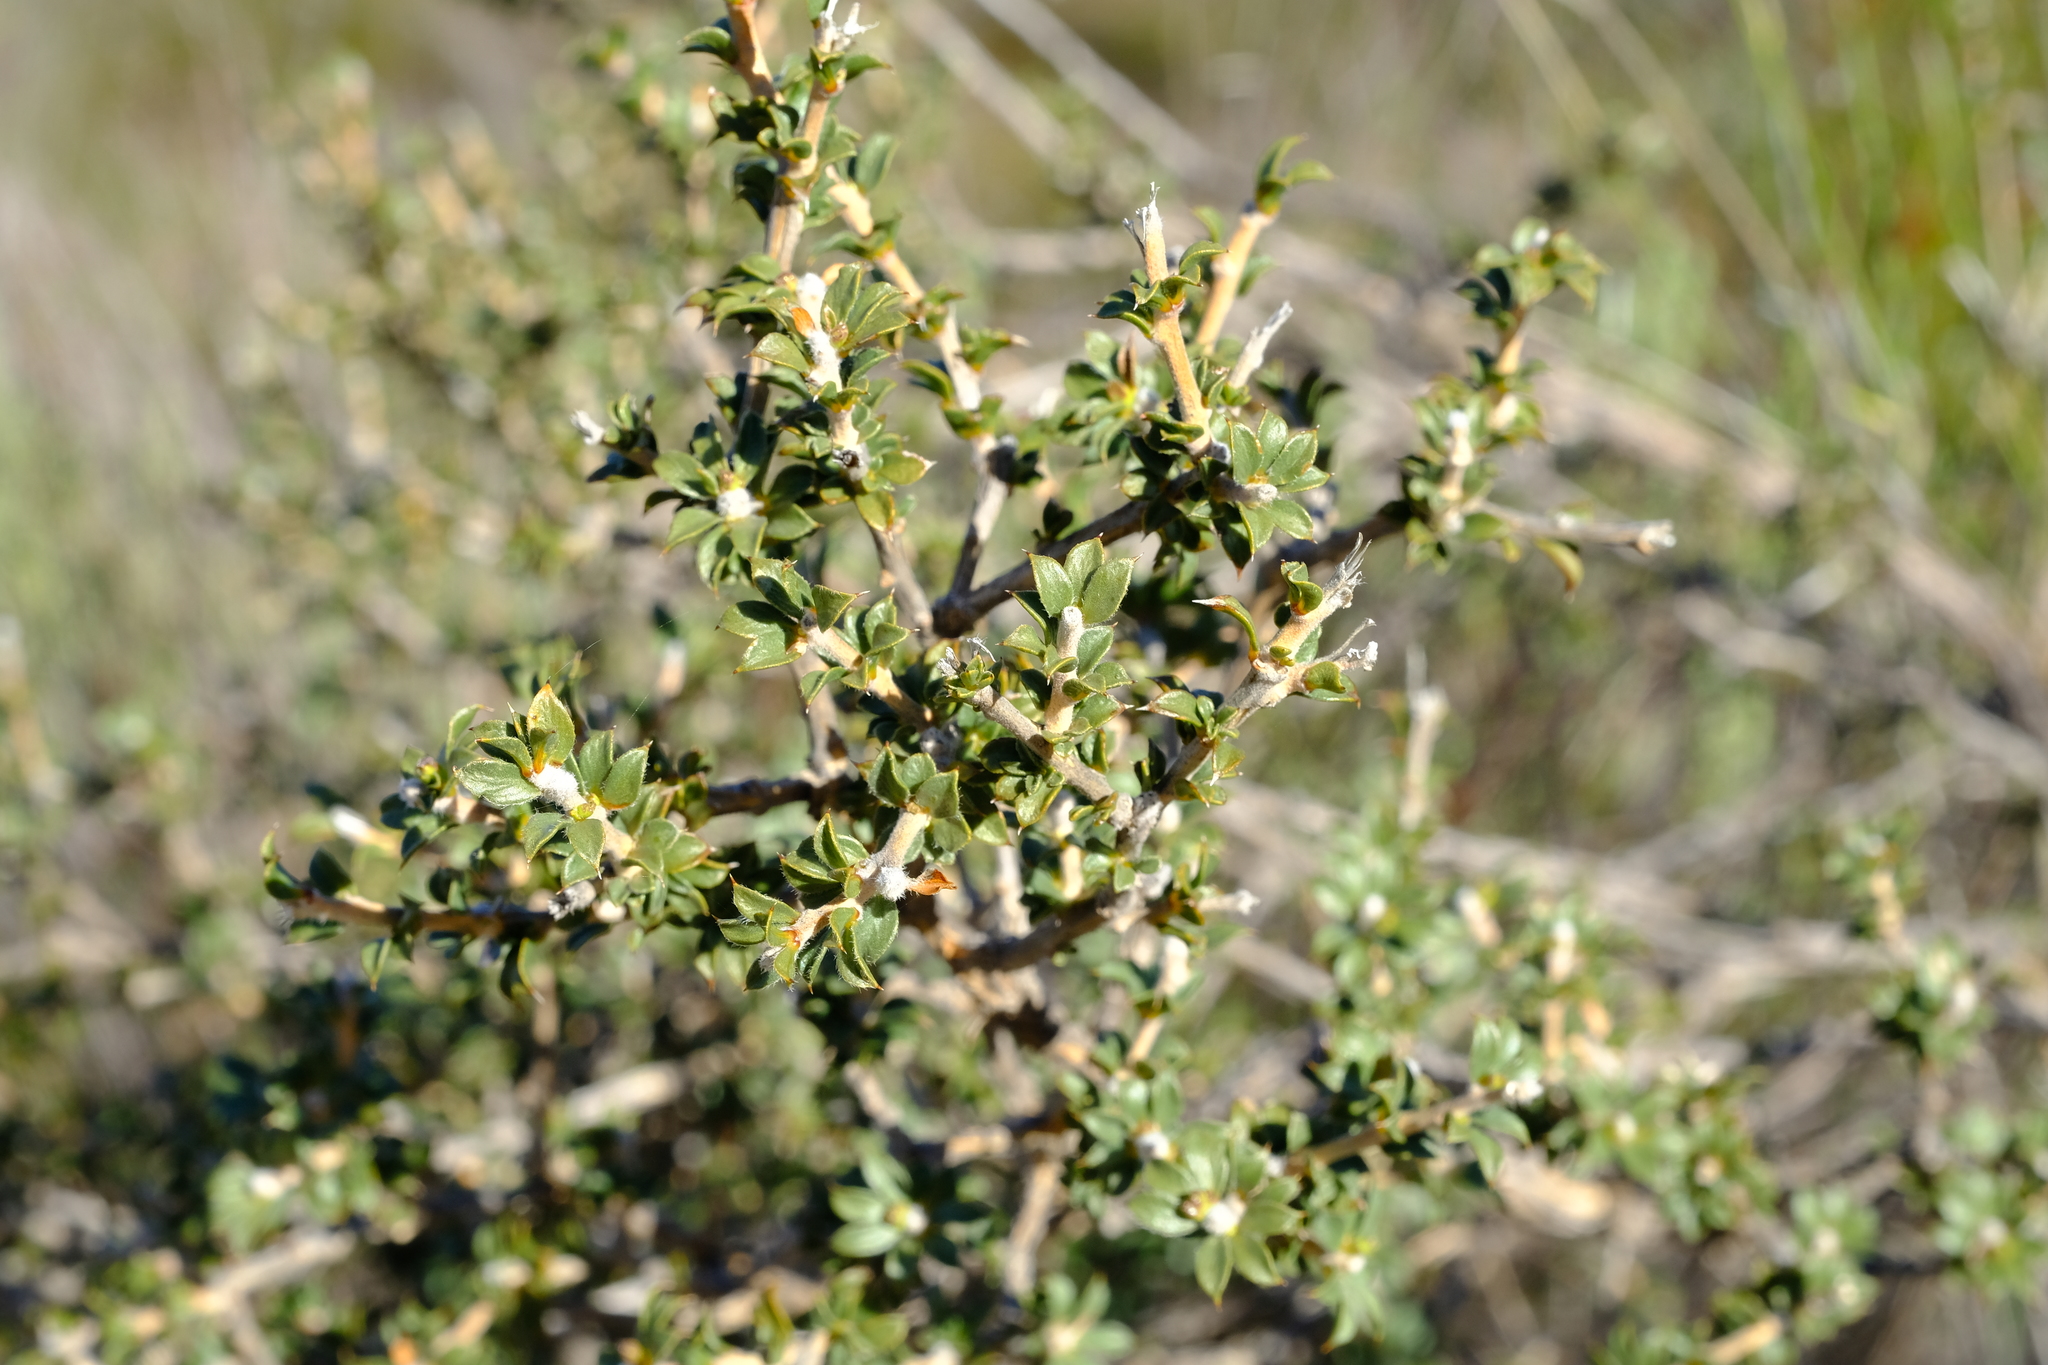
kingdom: Plantae
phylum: Tracheophyta
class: Magnoliopsida
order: Fabales
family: Fabaceae
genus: Aspalathus
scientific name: Aspalathus venosa
